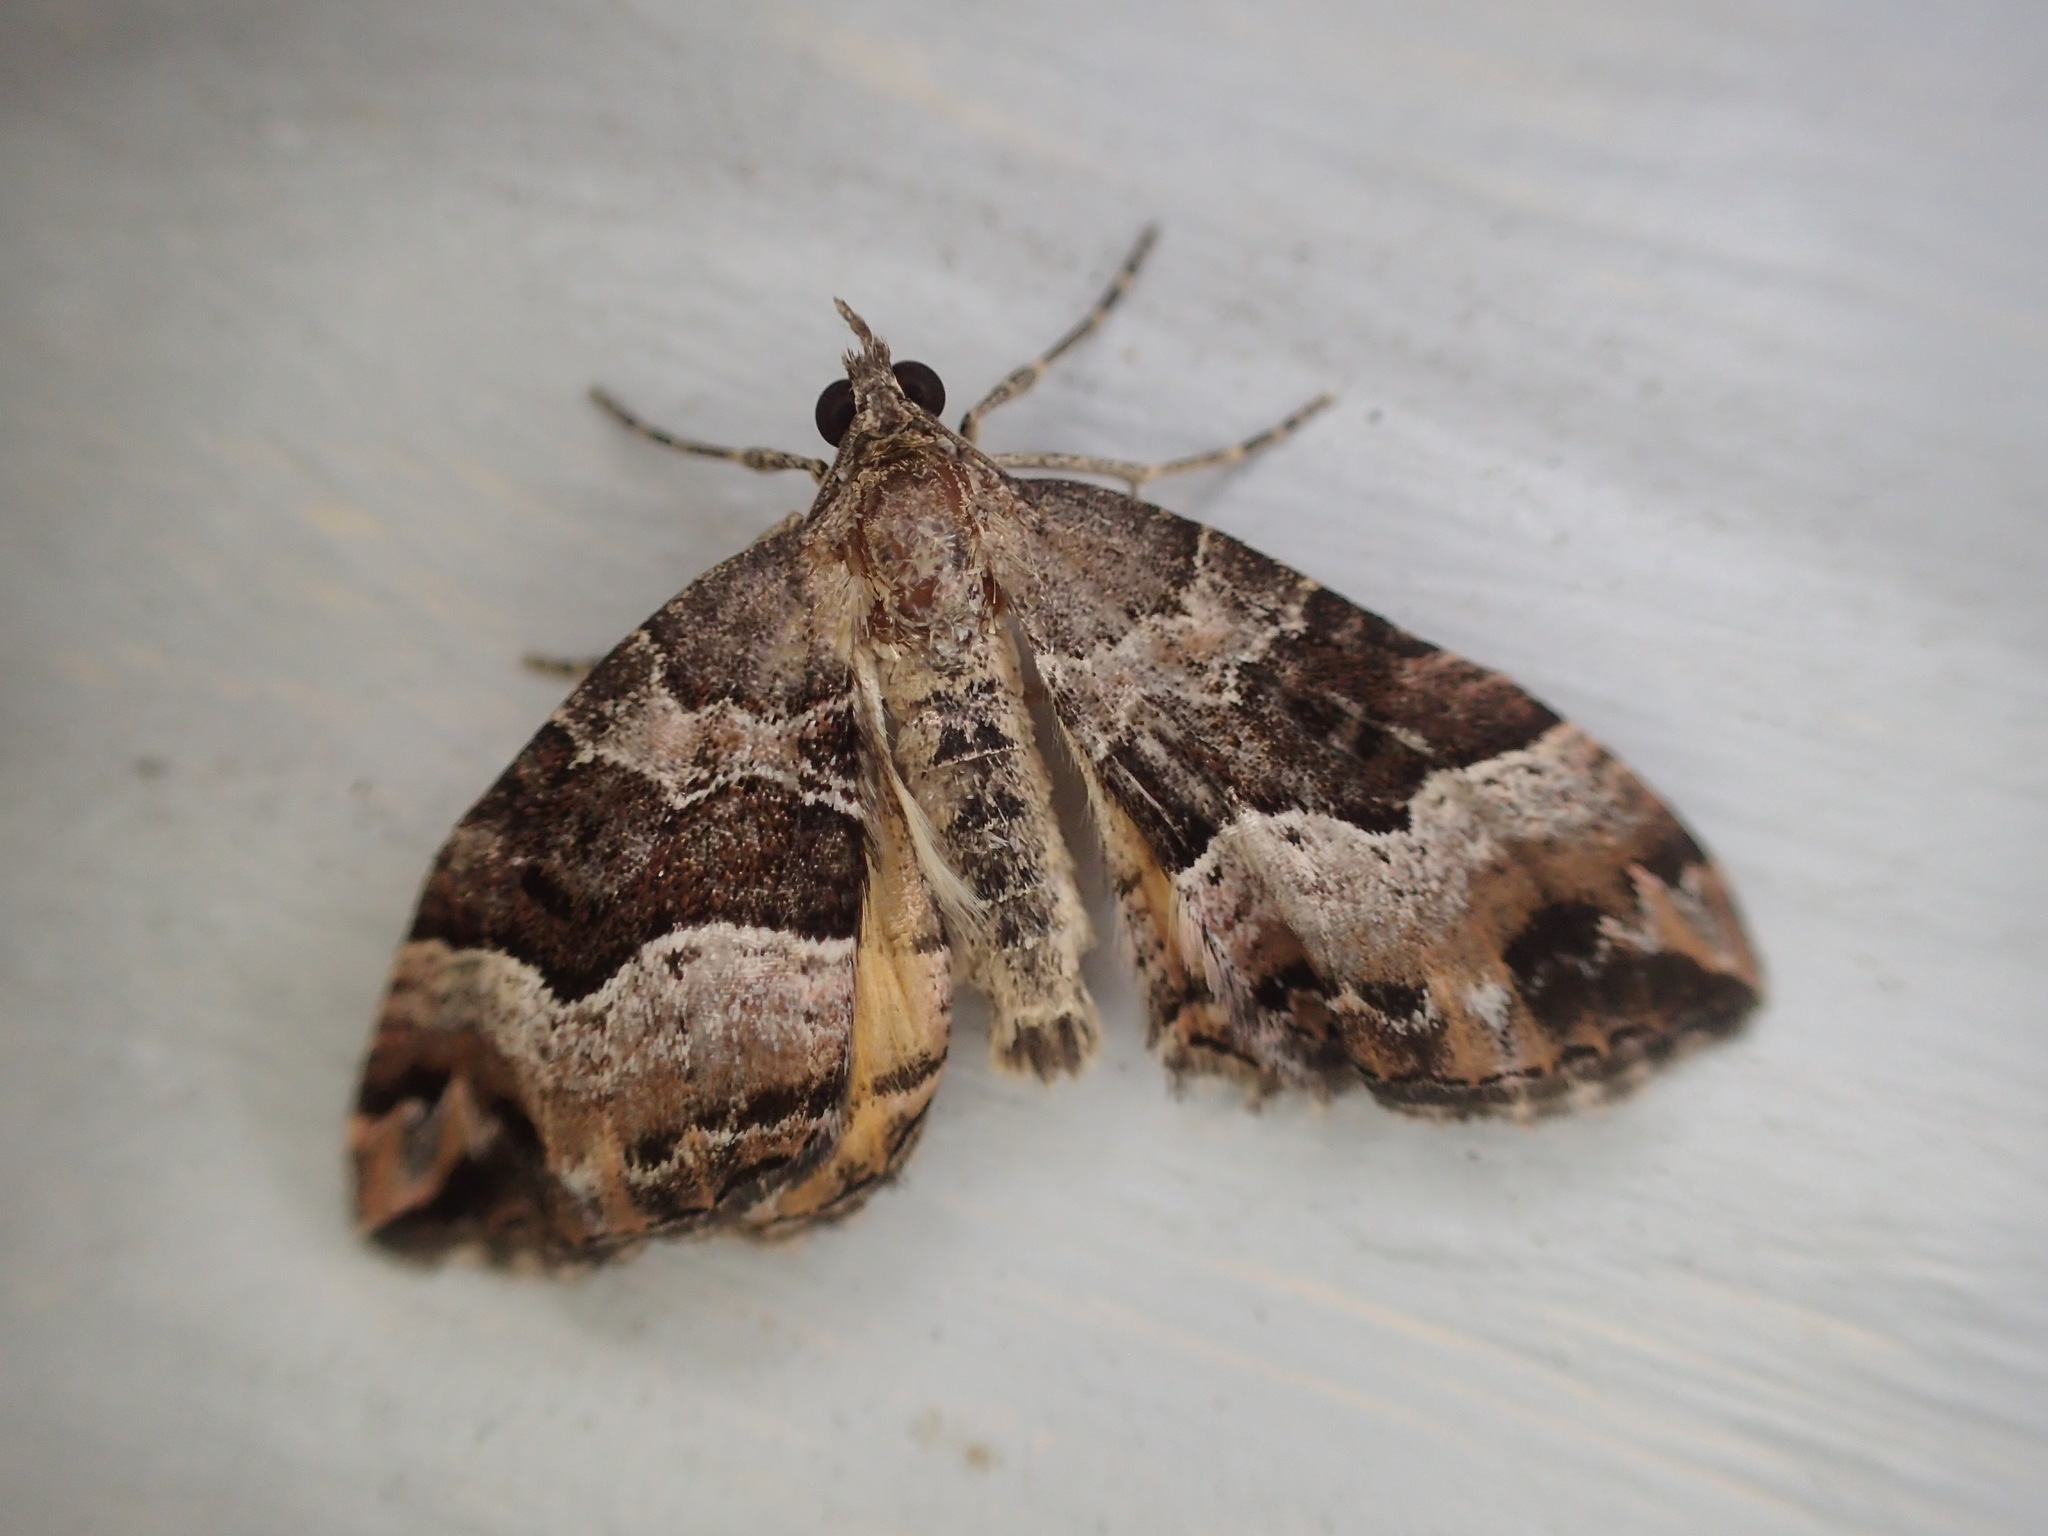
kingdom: Animalia
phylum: Arthropoda
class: Insecta
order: Lepidoptera
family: Geometridae
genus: Chrysolarentia
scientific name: Chrysolarentia lucidulata
